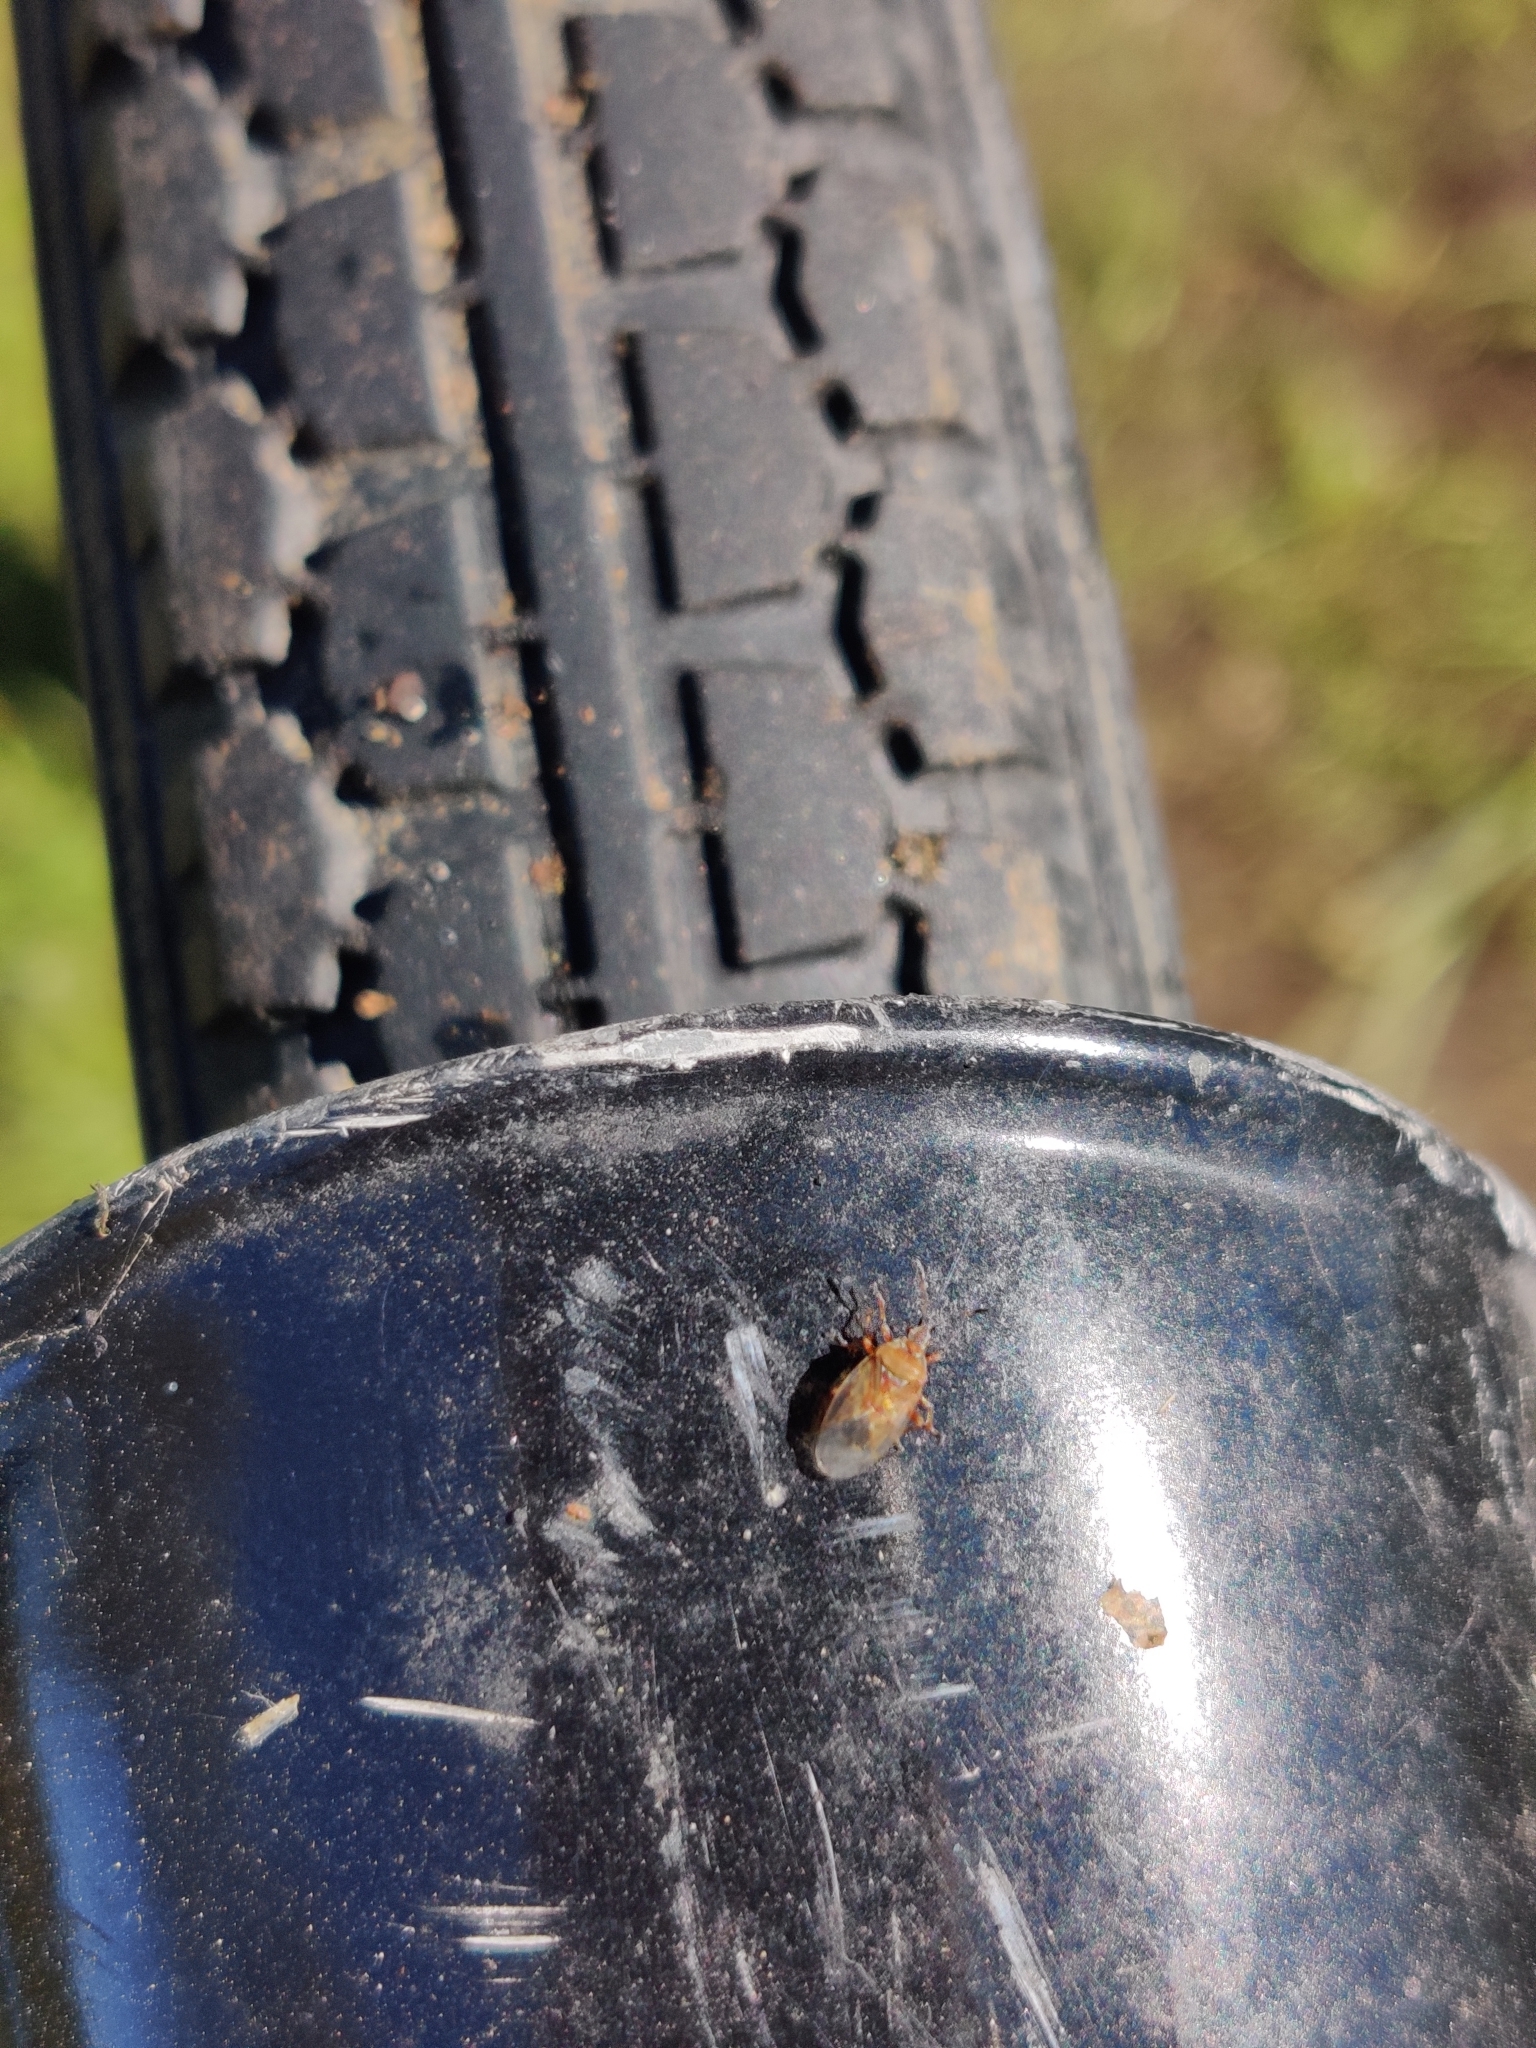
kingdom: Animalia
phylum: Arthropoda
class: Insecta
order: Hemiptera
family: Lygaeidae
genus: Kleidocerys
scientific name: Kleidocerys resedae
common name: Birch catkin bug
